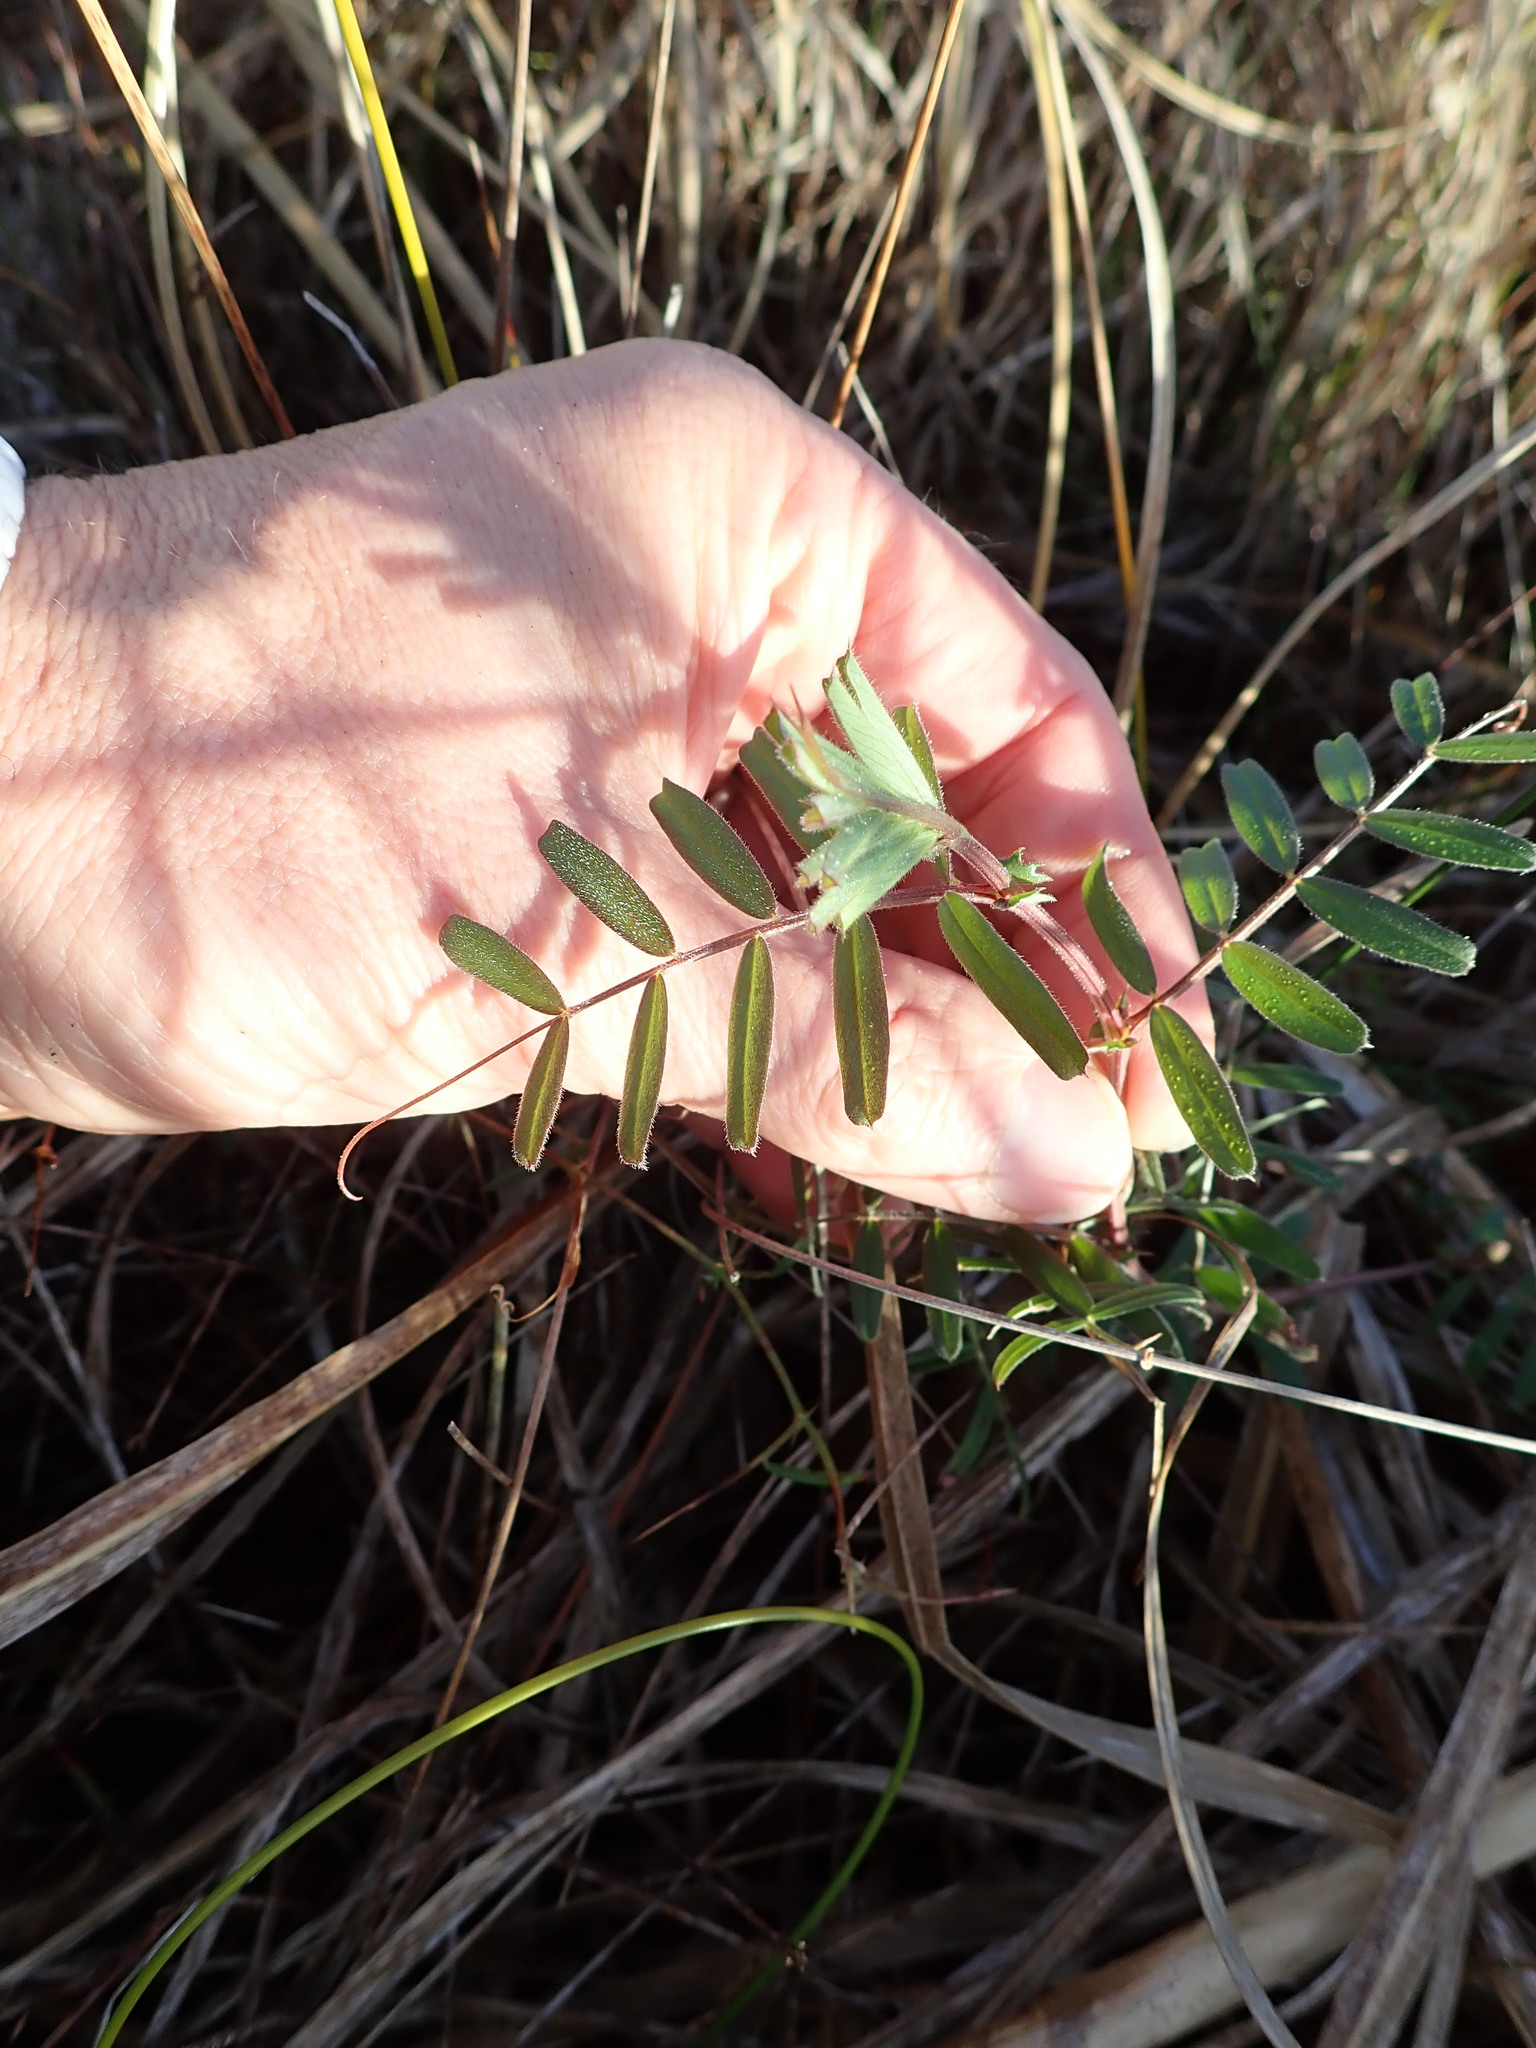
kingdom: Plantae
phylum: Tracheophyta
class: Magnoliopsida
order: Fabales
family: Fabaceae
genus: Vicia
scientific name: Vicia sativa
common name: Garden vetch
